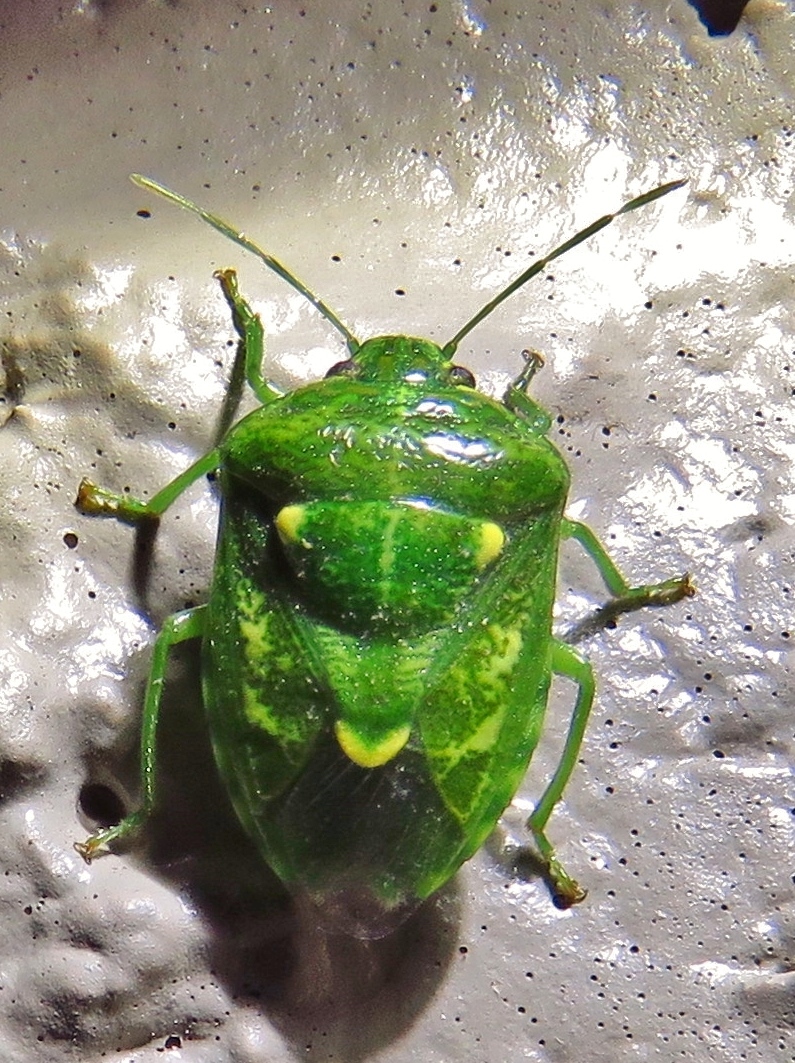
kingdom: Animalia
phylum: Arthropoda
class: Insecta
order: Hemiptera
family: Pentatomidae
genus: Banasa
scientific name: Banasa euchlora
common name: Cedar berry bug
